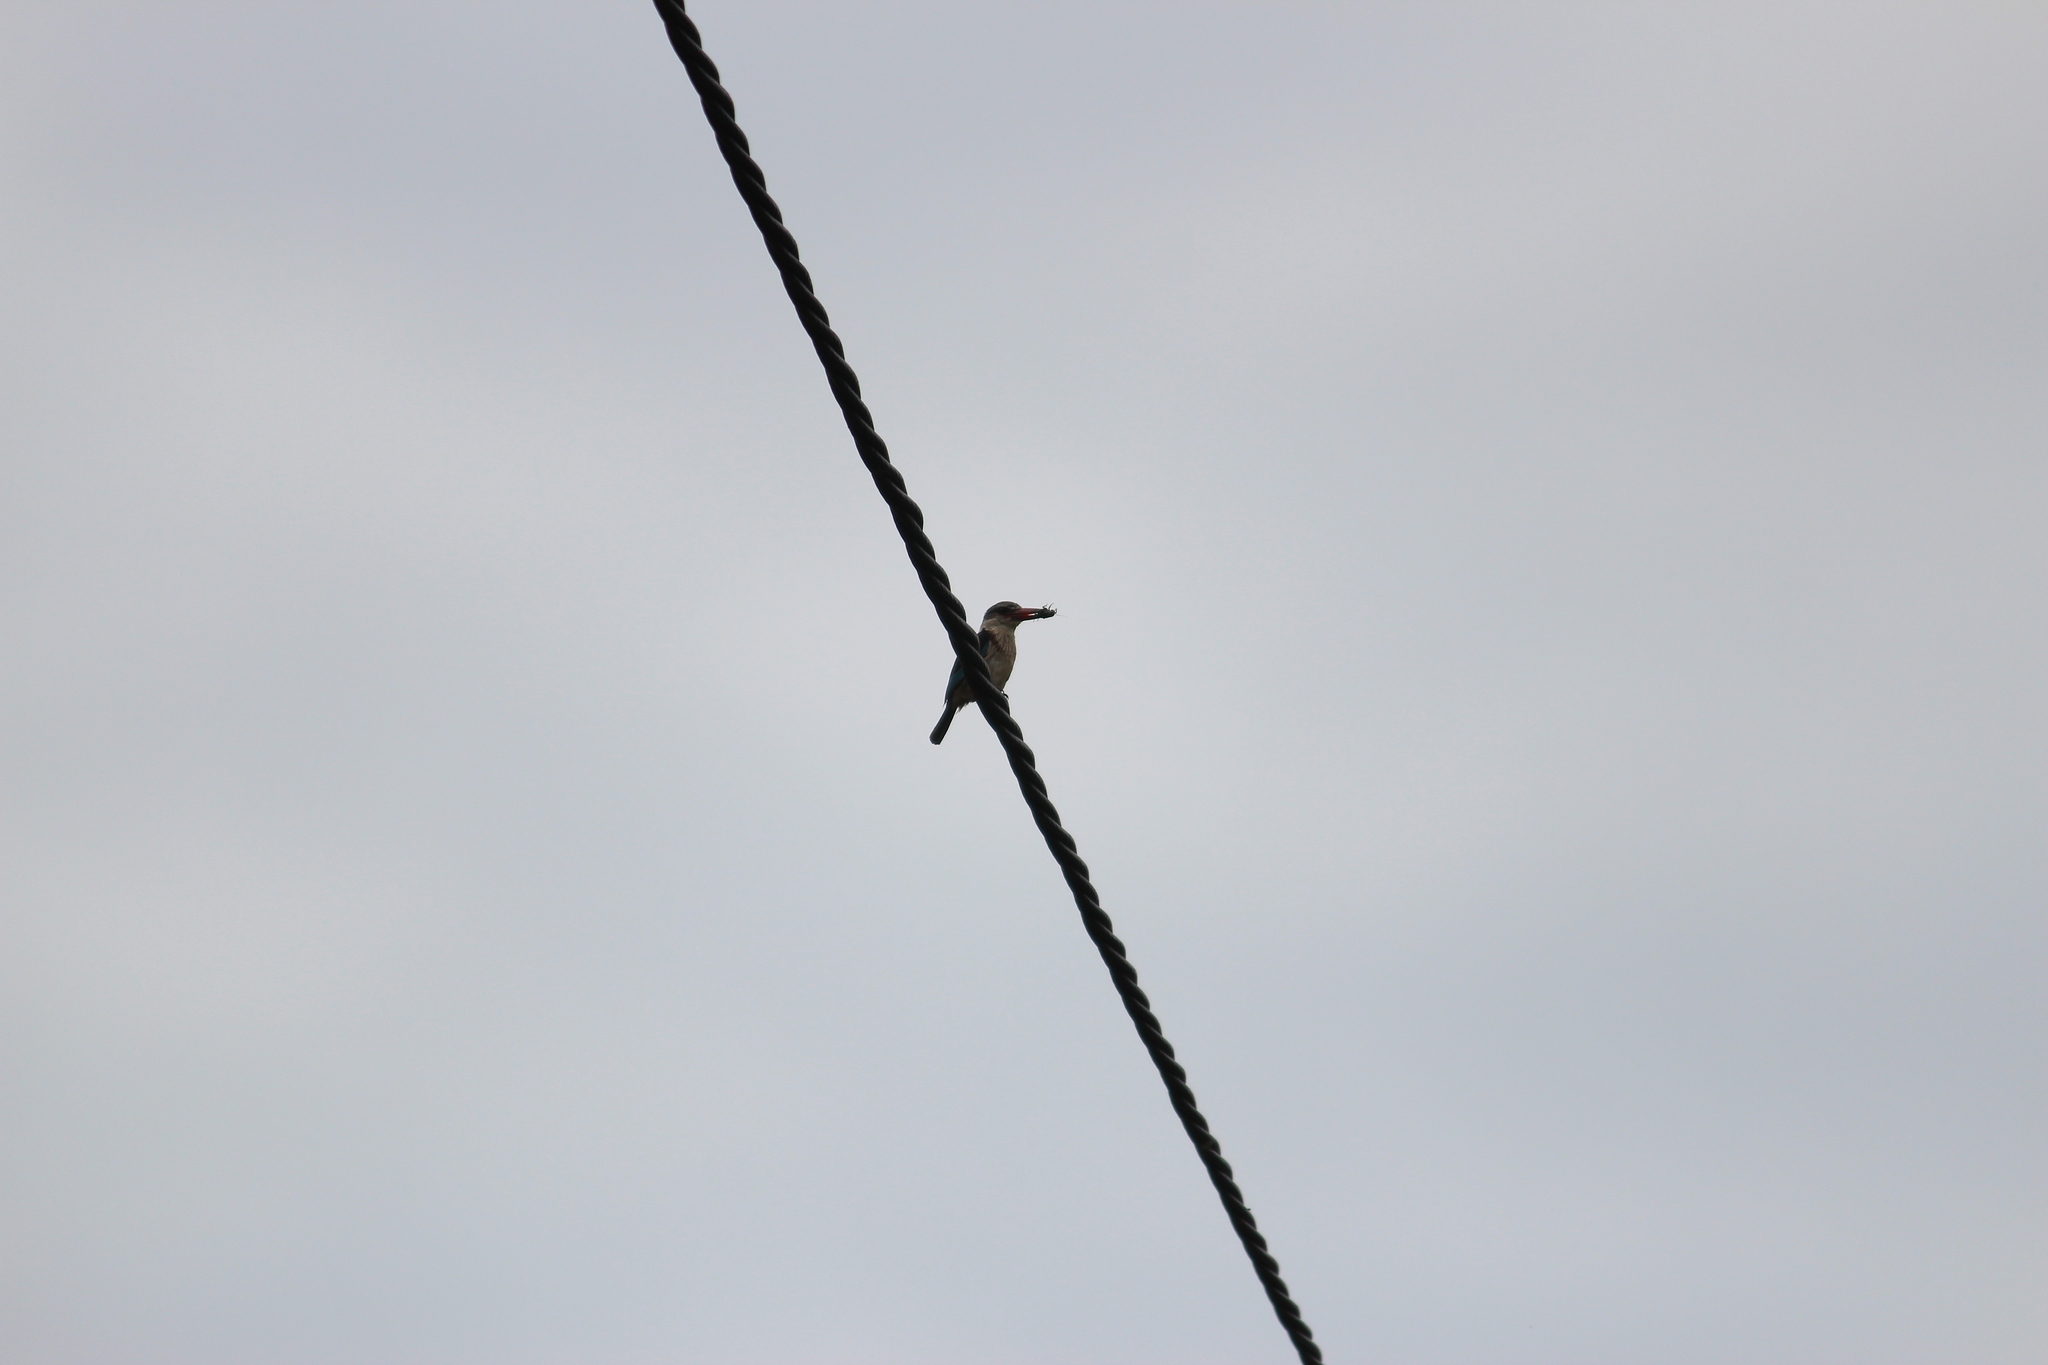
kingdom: Animalia
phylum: Chordata
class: Aves
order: Coraciiformes
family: Alcedinidae
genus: Halcyon
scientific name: Halcyon albiventris
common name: Brown-hooded kingfisher
